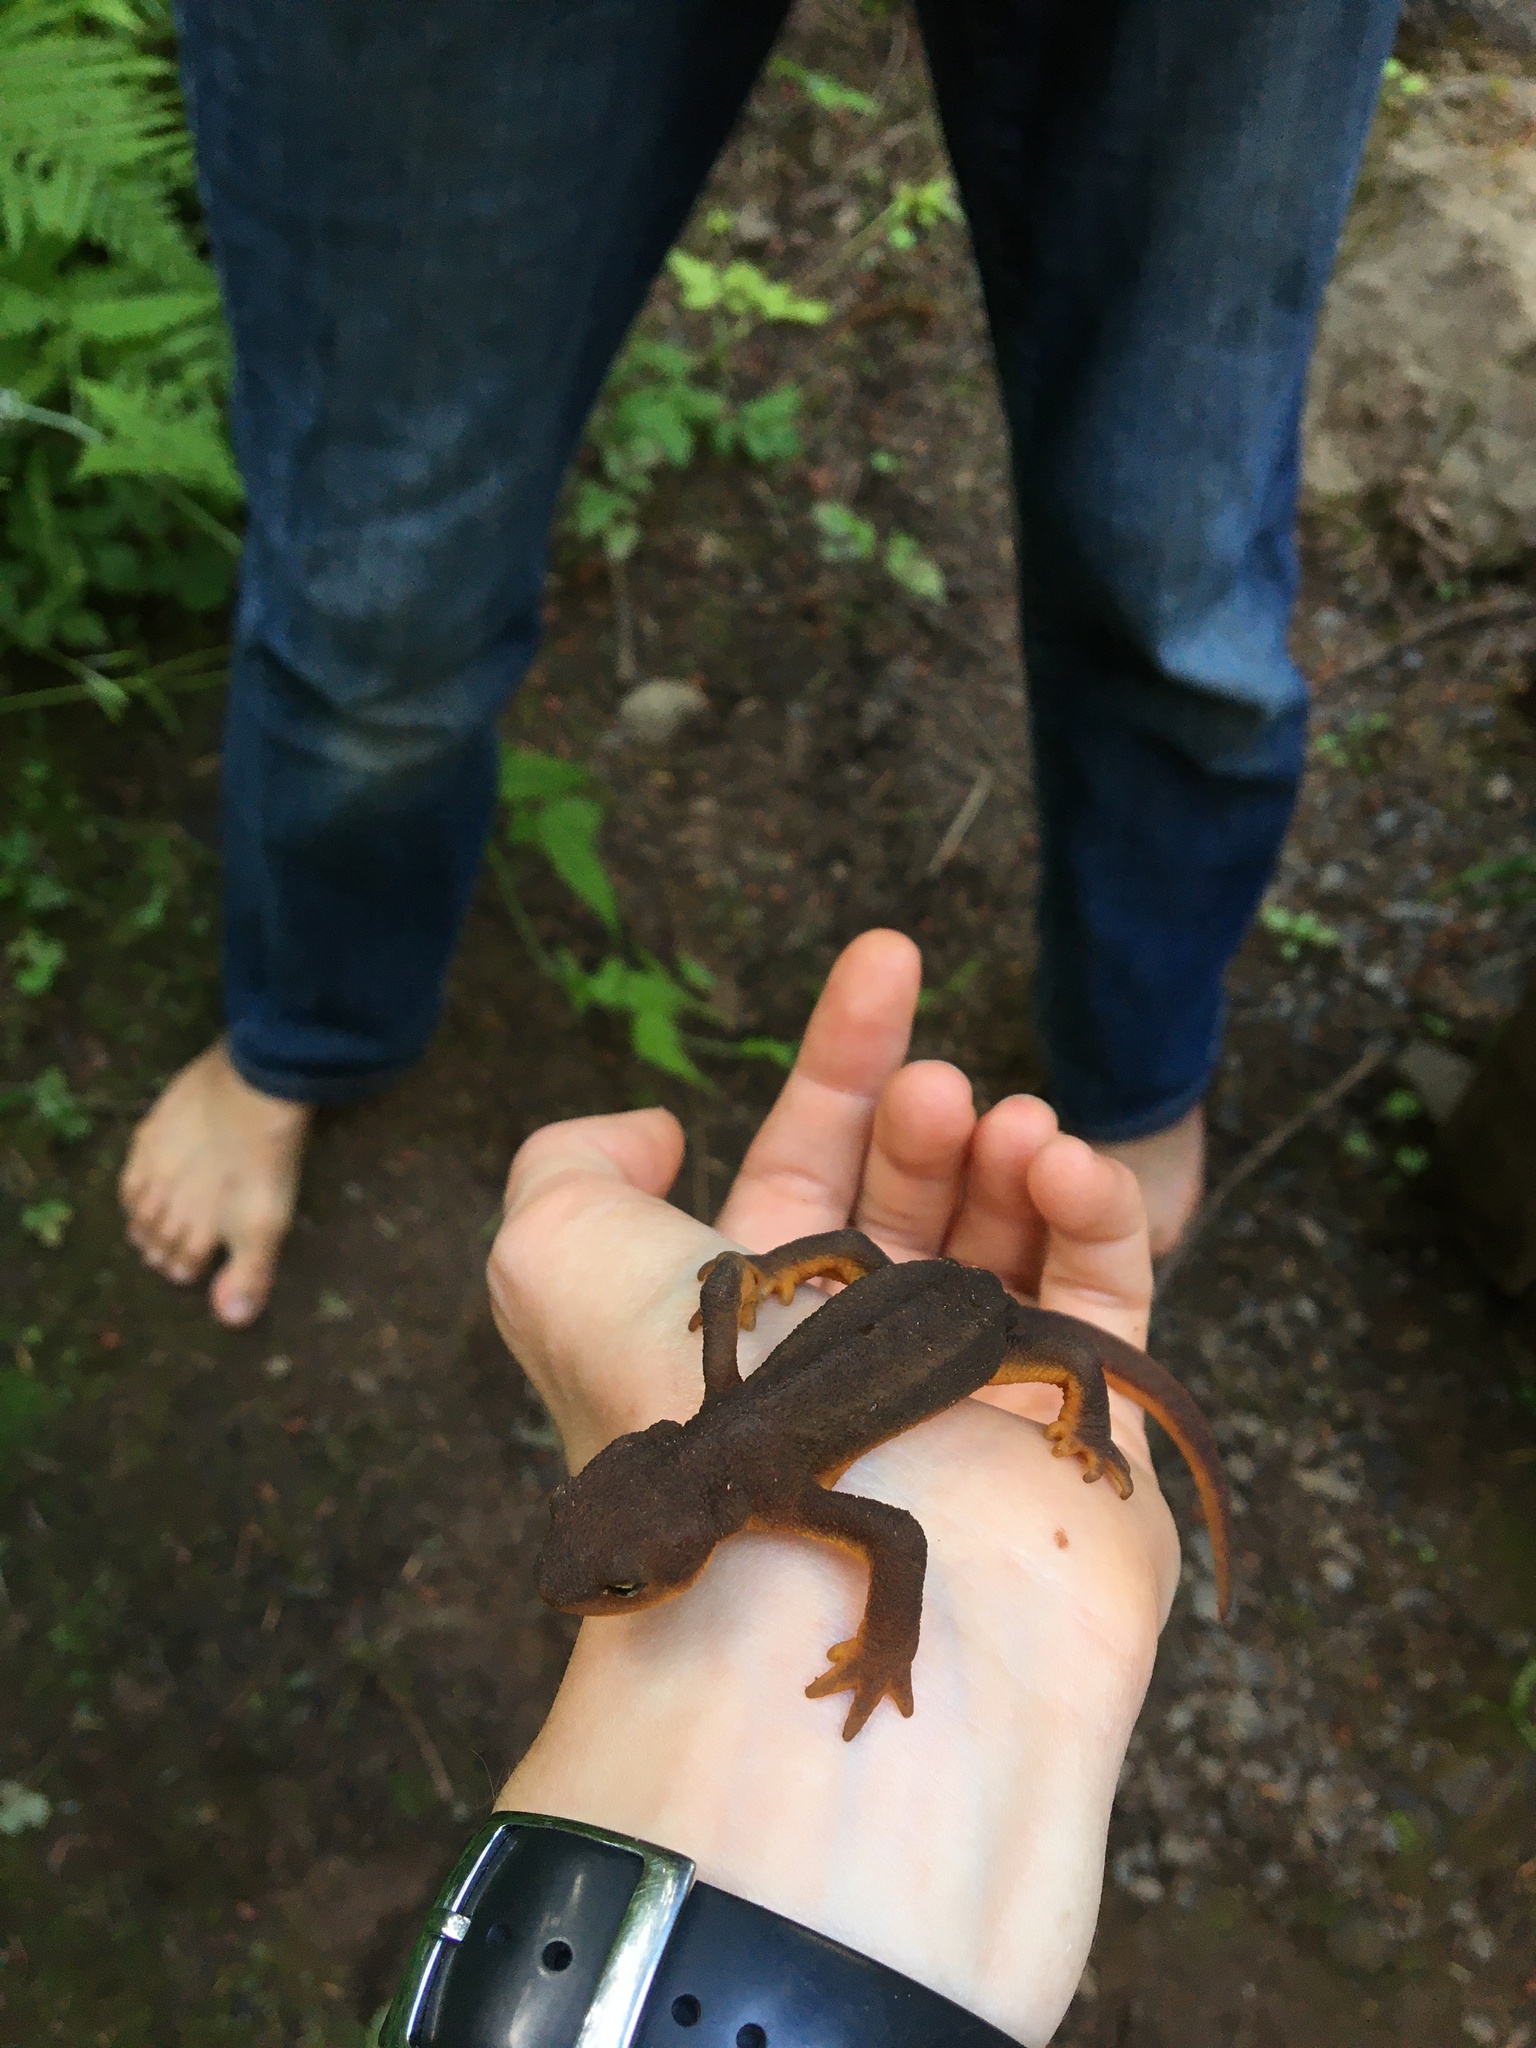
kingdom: Animalia
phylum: Chordata
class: Amphibia
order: Caudata
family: Salamandridae
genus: Taricha
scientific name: Taricha granulosa
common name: Roughskin newt
